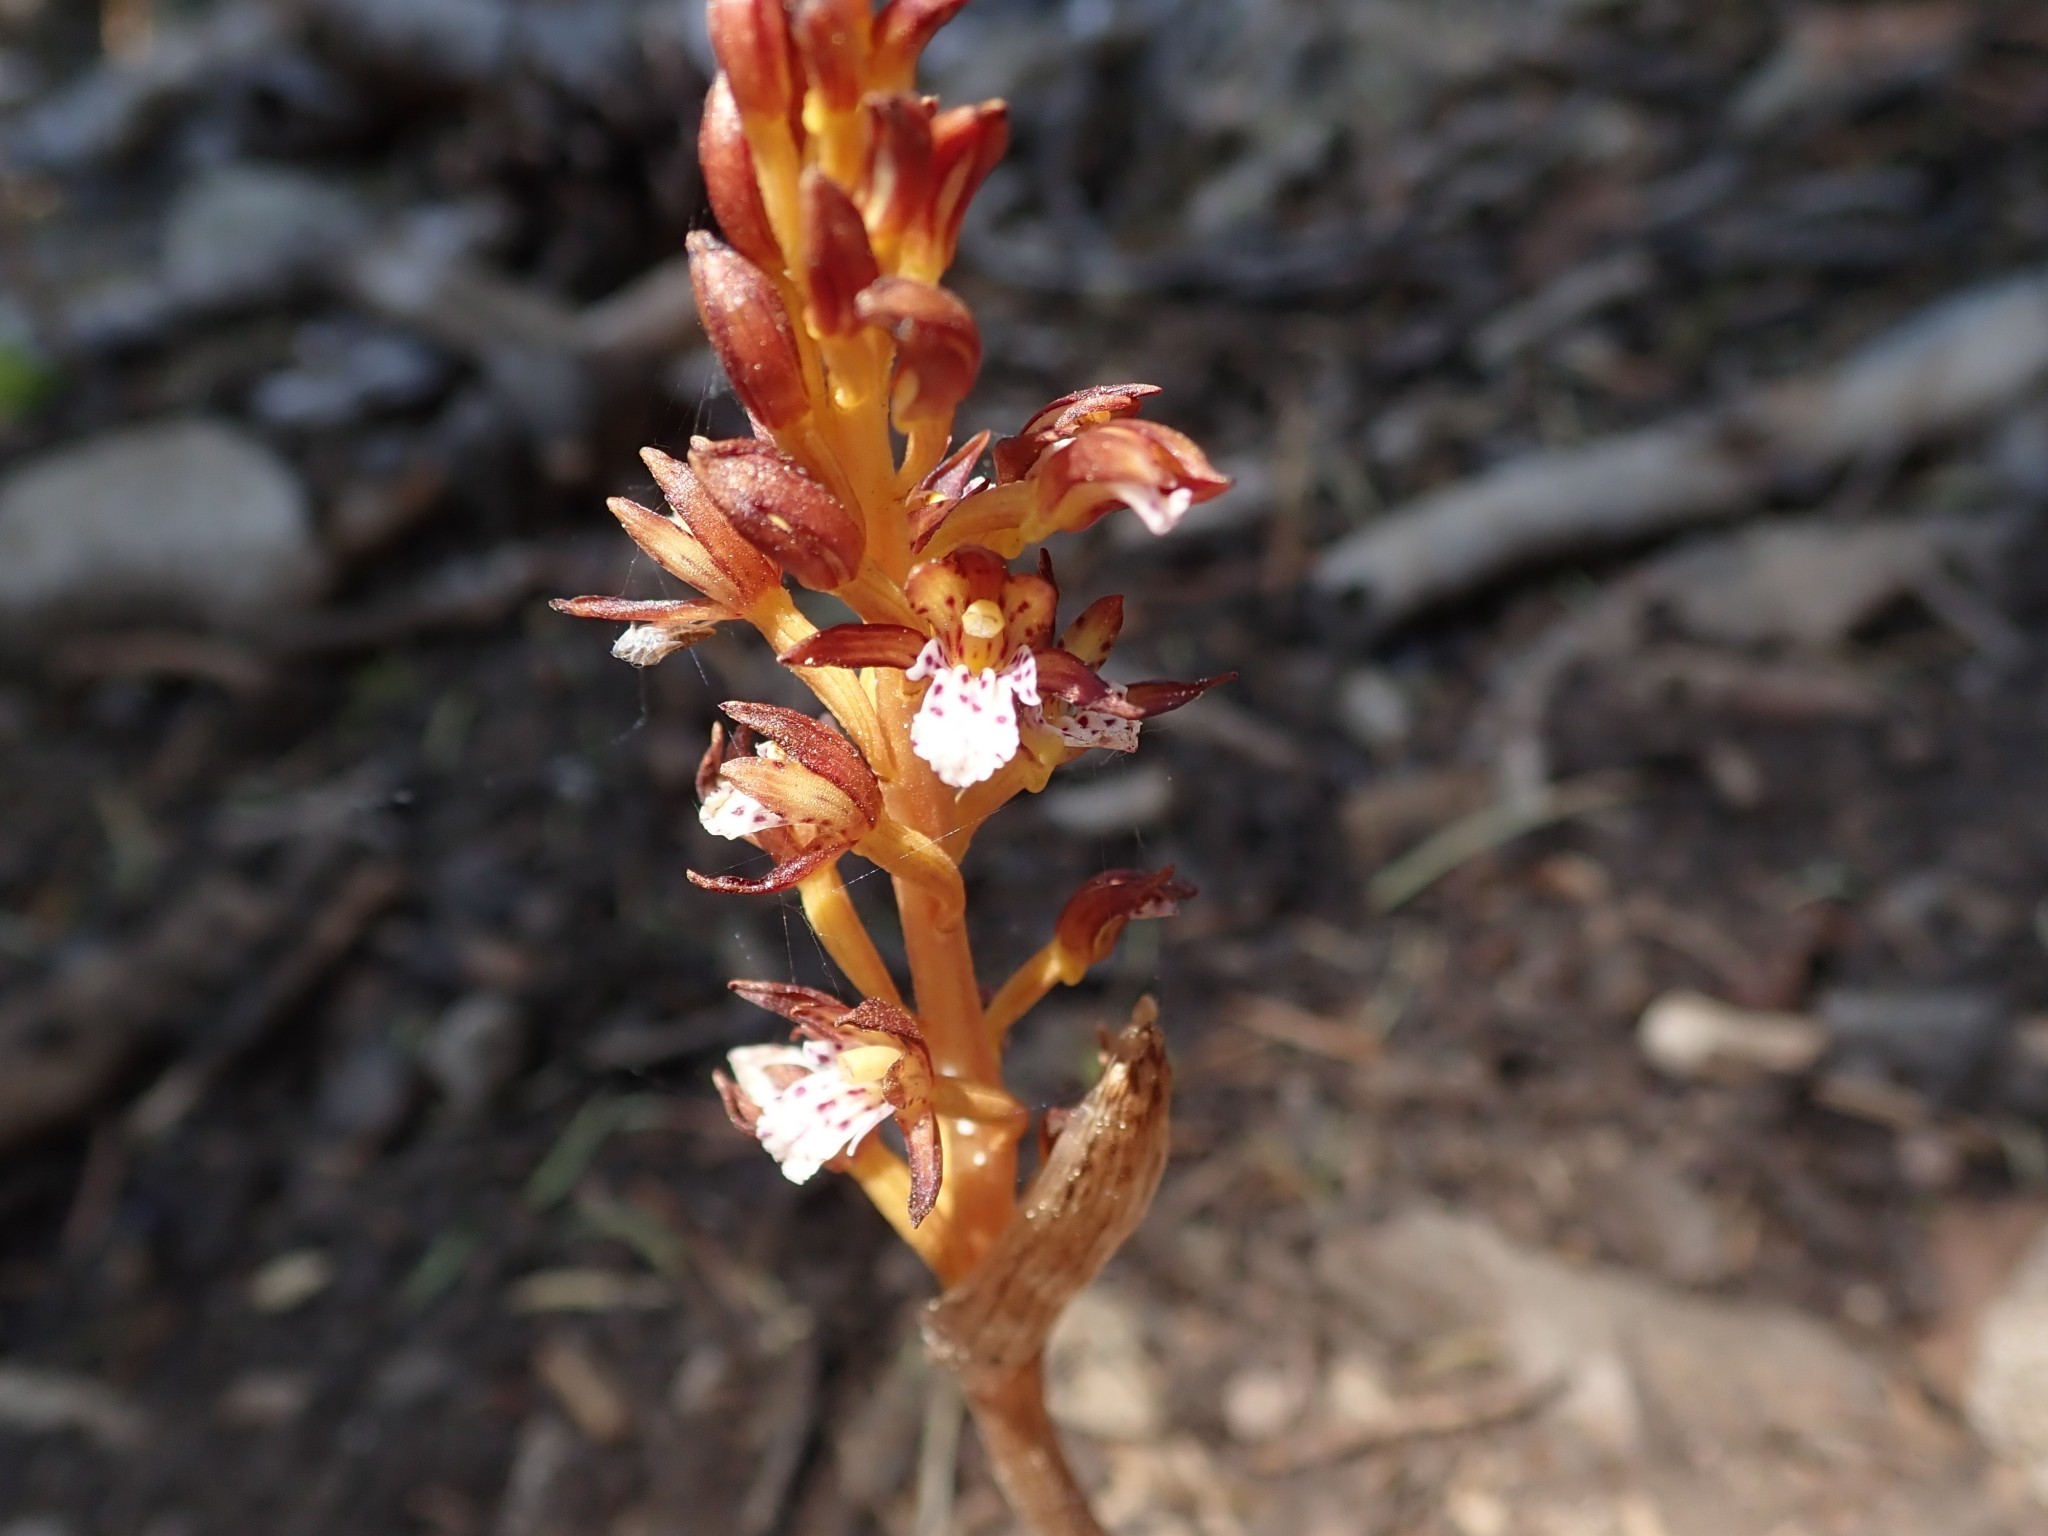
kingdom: Plantae
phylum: Tracheophyta
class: Liliopsida
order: Asparagales
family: Orchidaceae
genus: Corallorhiza
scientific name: Corallorhiza maculata
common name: Spotted coralroot
